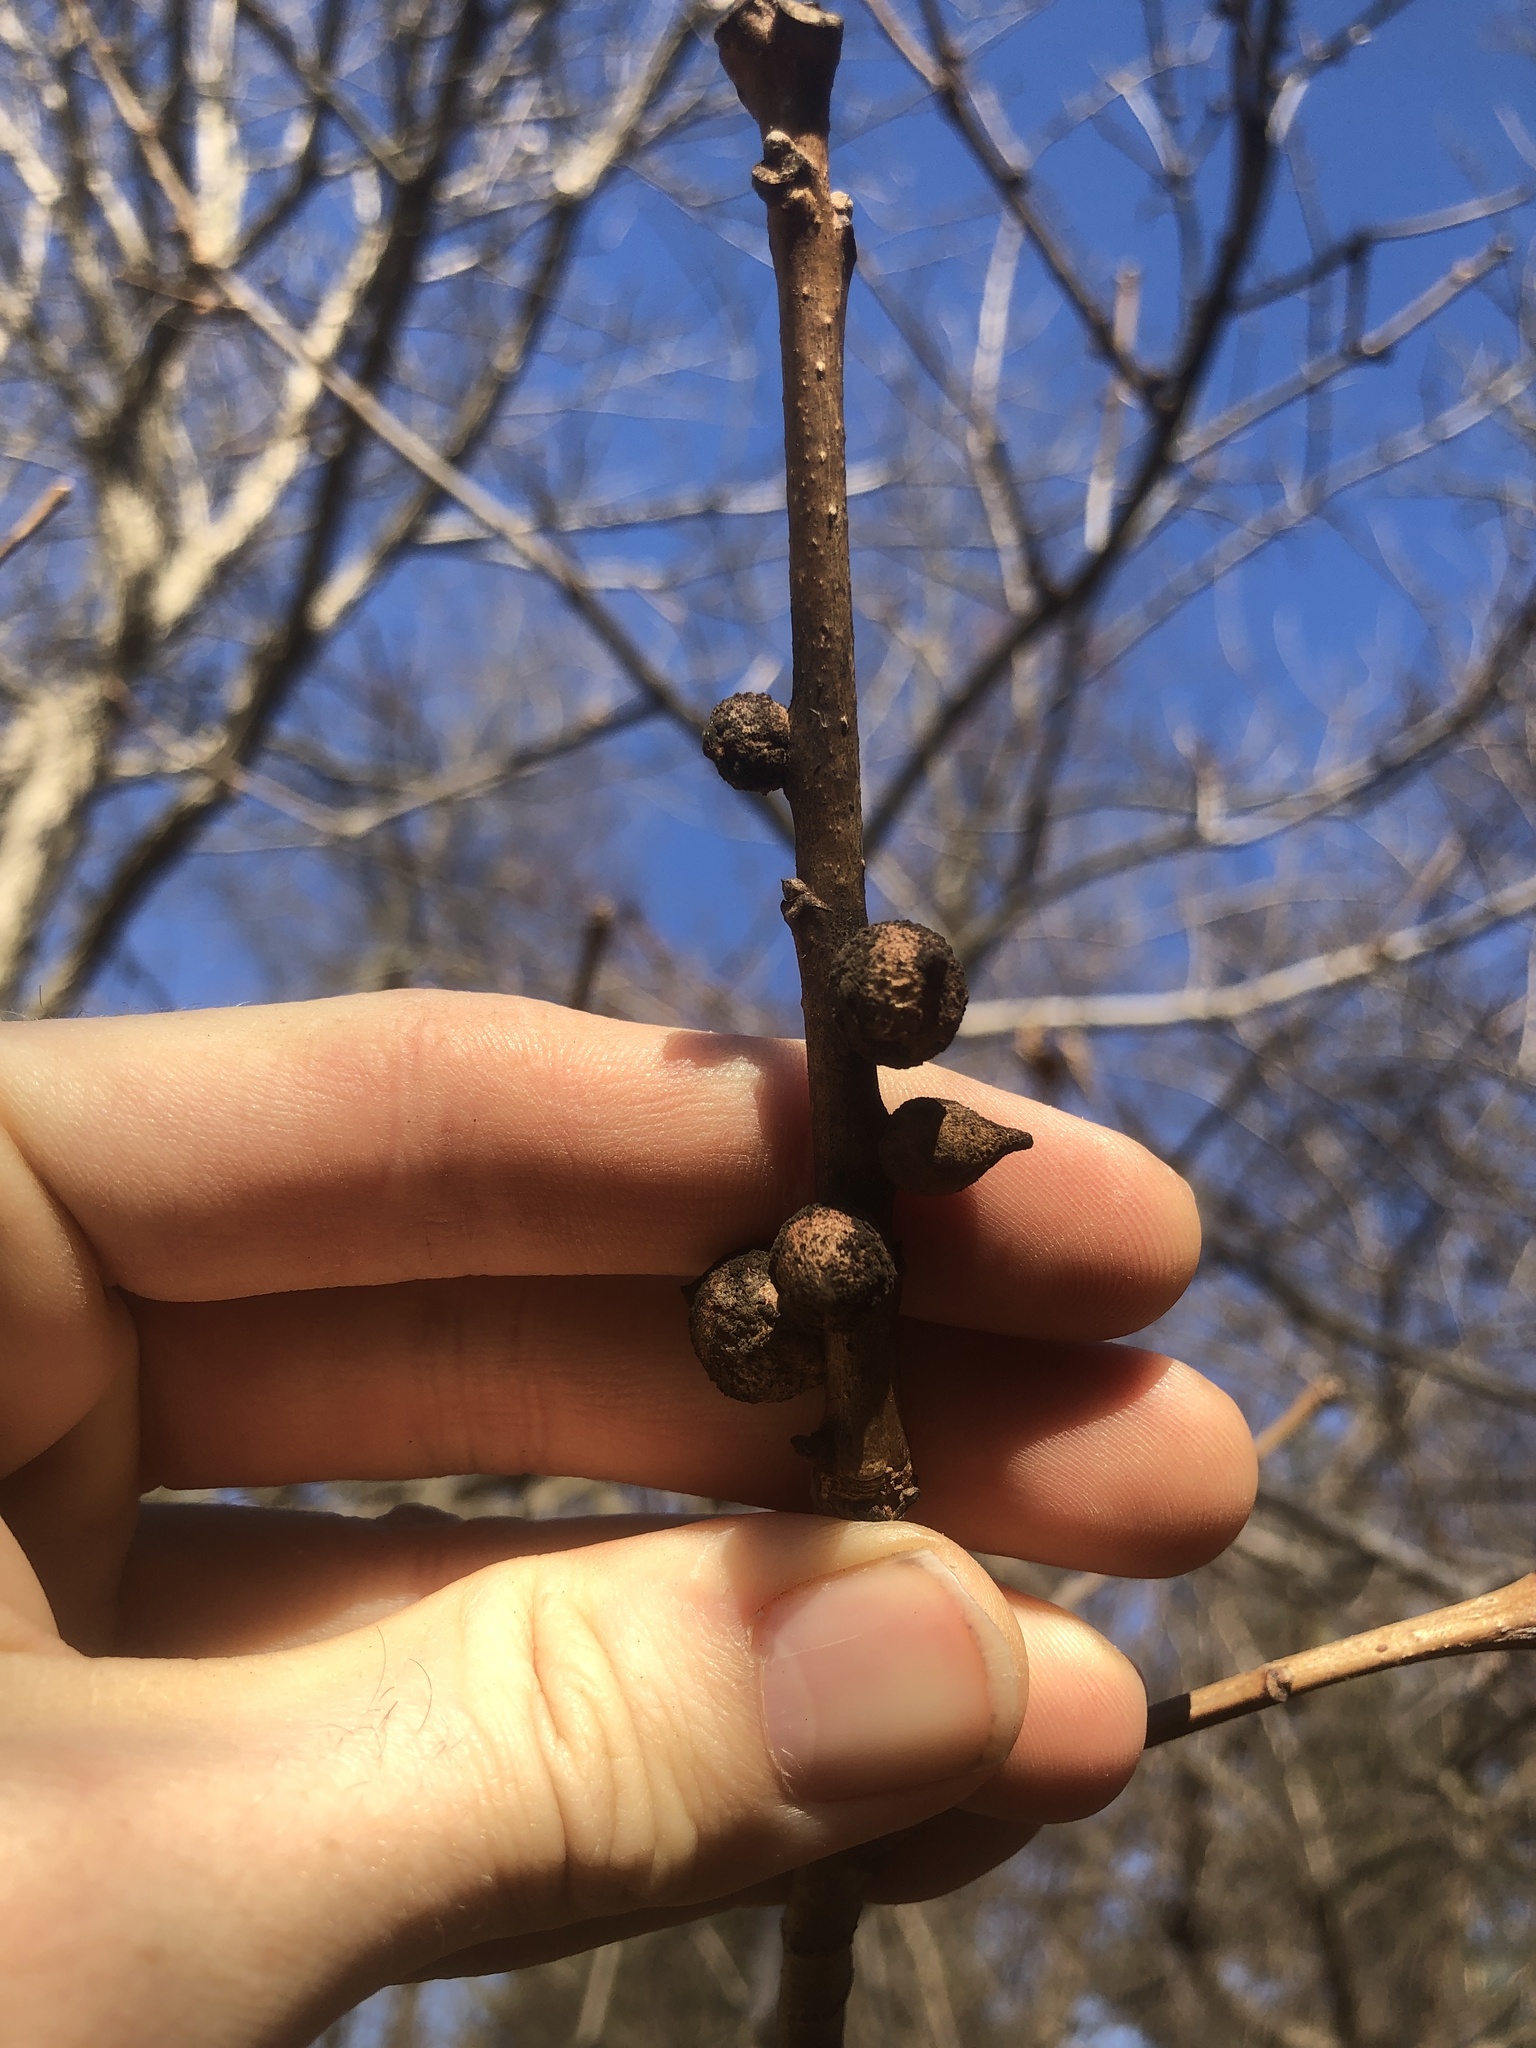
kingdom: Animalia
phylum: Arthropoda
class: Insecta
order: Hymenoptera
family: Cynipidae
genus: Disholcaspis
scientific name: Disholcaspis
